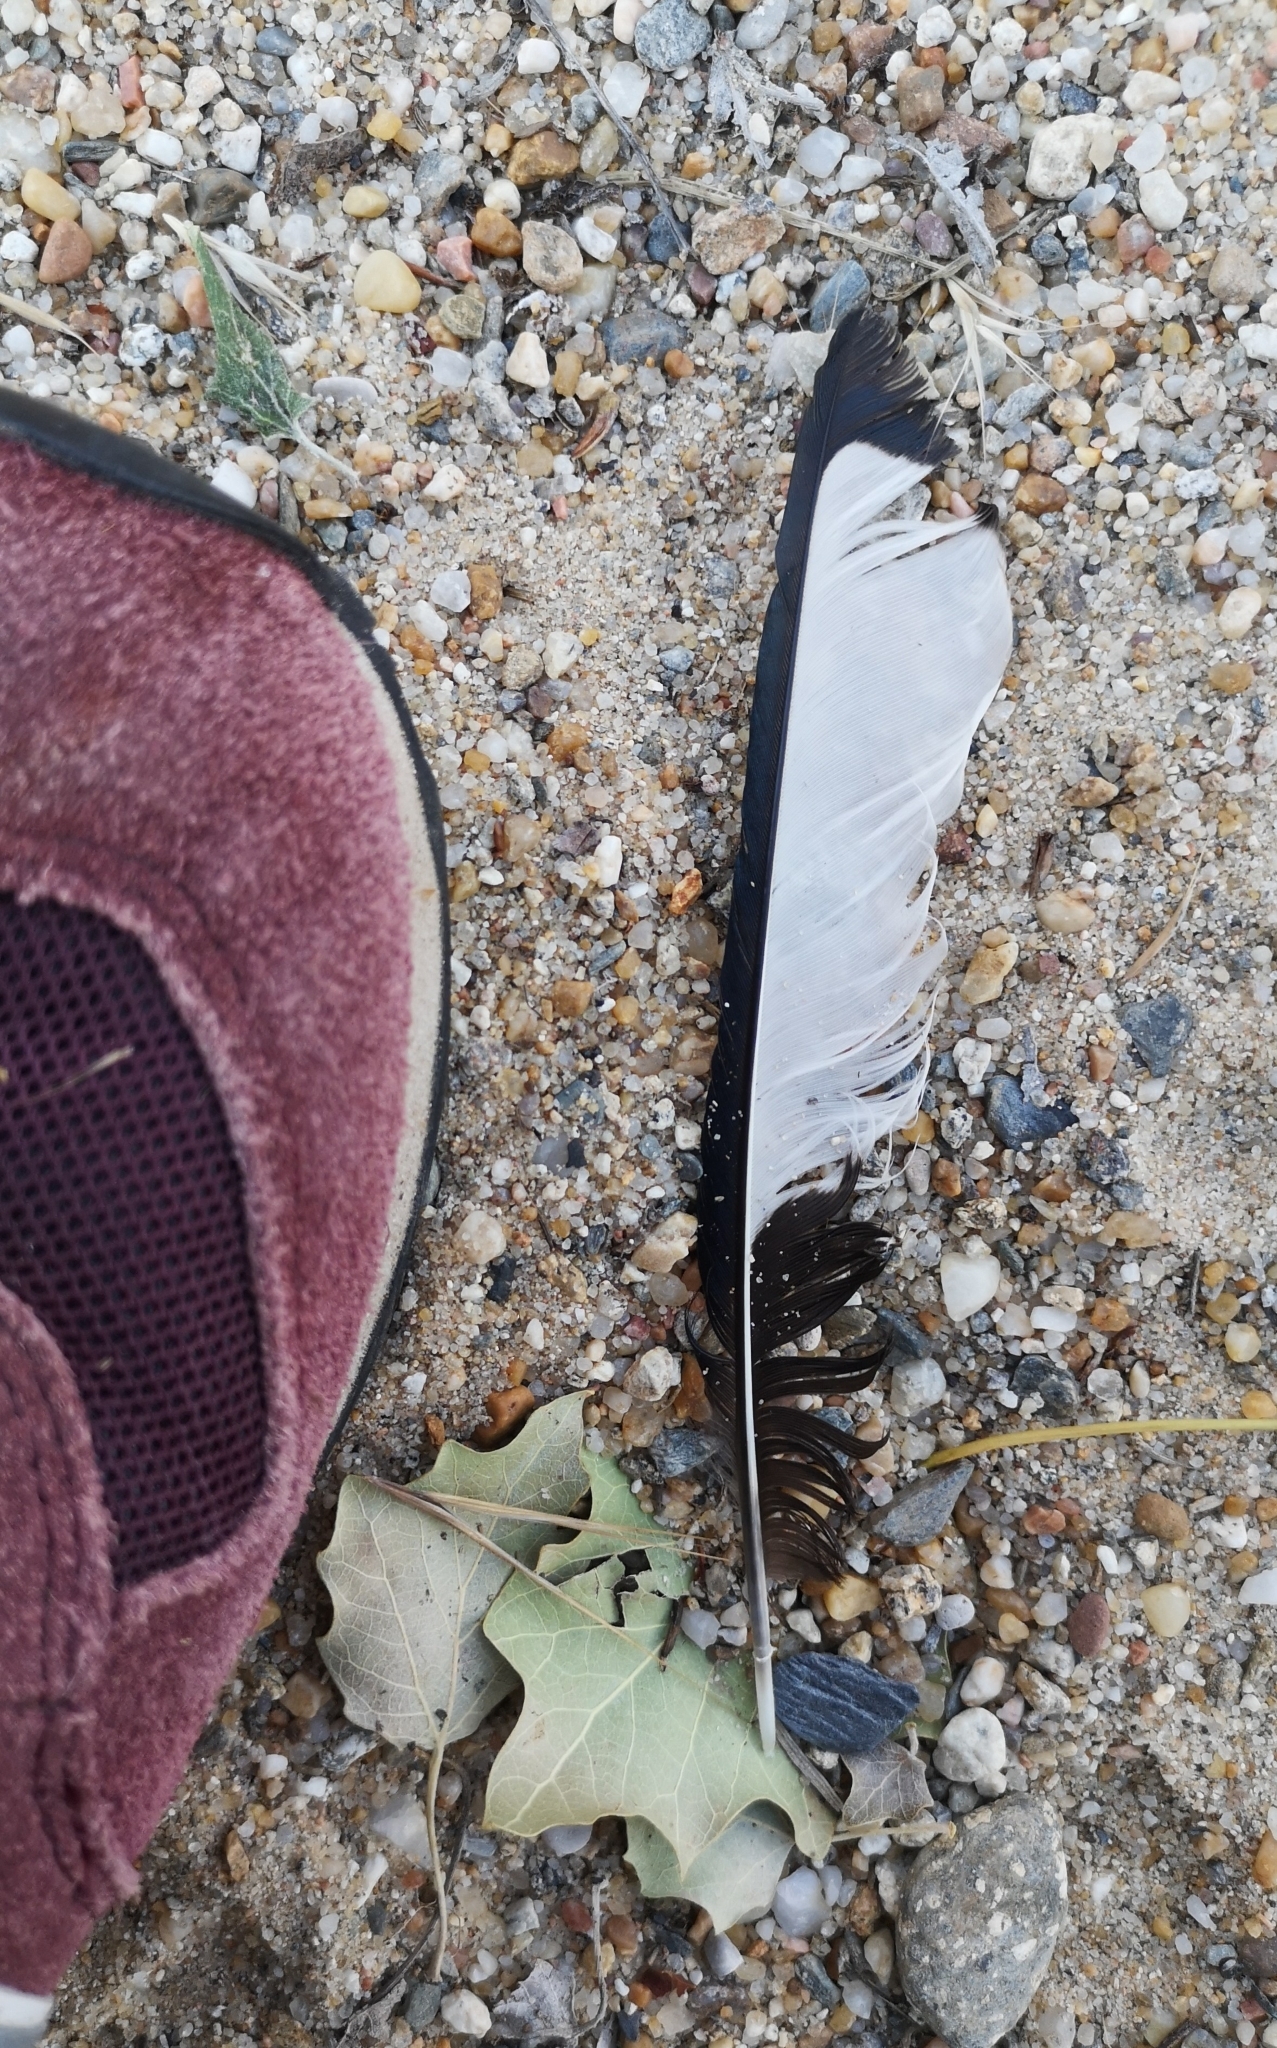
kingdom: Animalia
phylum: Chordata
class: Aves
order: Passeriformes
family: Corvidae
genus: Pica
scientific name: Pica pica
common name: Eurasian magpie
